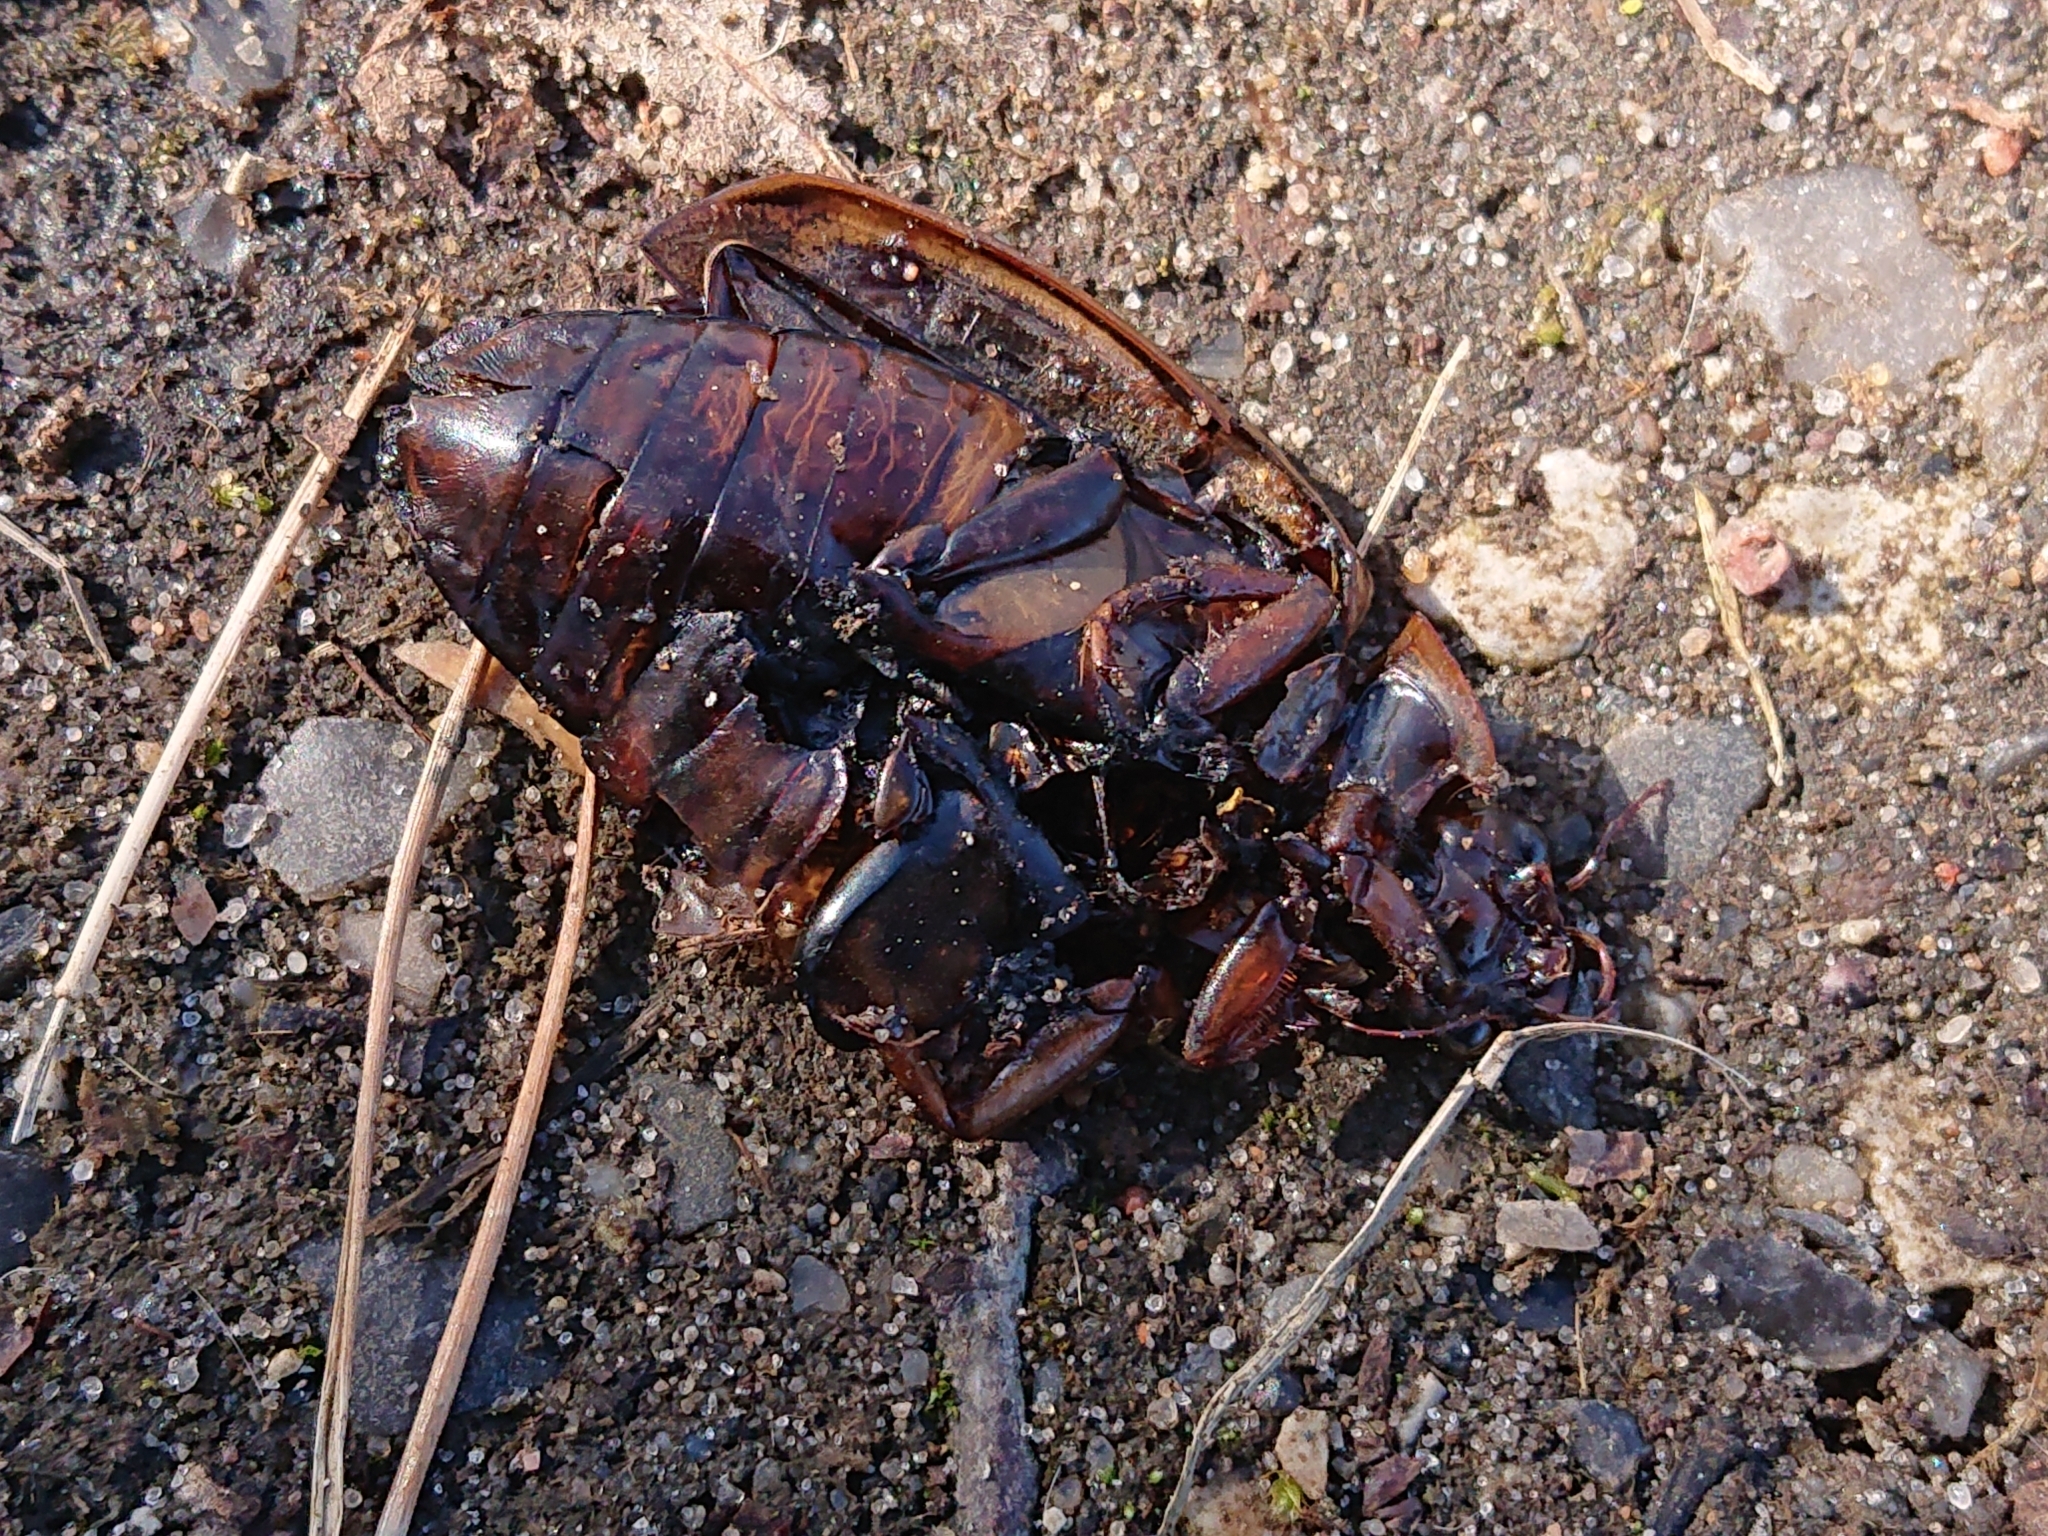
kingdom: Animalia
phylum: Arthropoda
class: Insecta
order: Coleoptera
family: Dytiscidae
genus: Dytiscus
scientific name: Dytiscus marginalis
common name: Great water beetle
